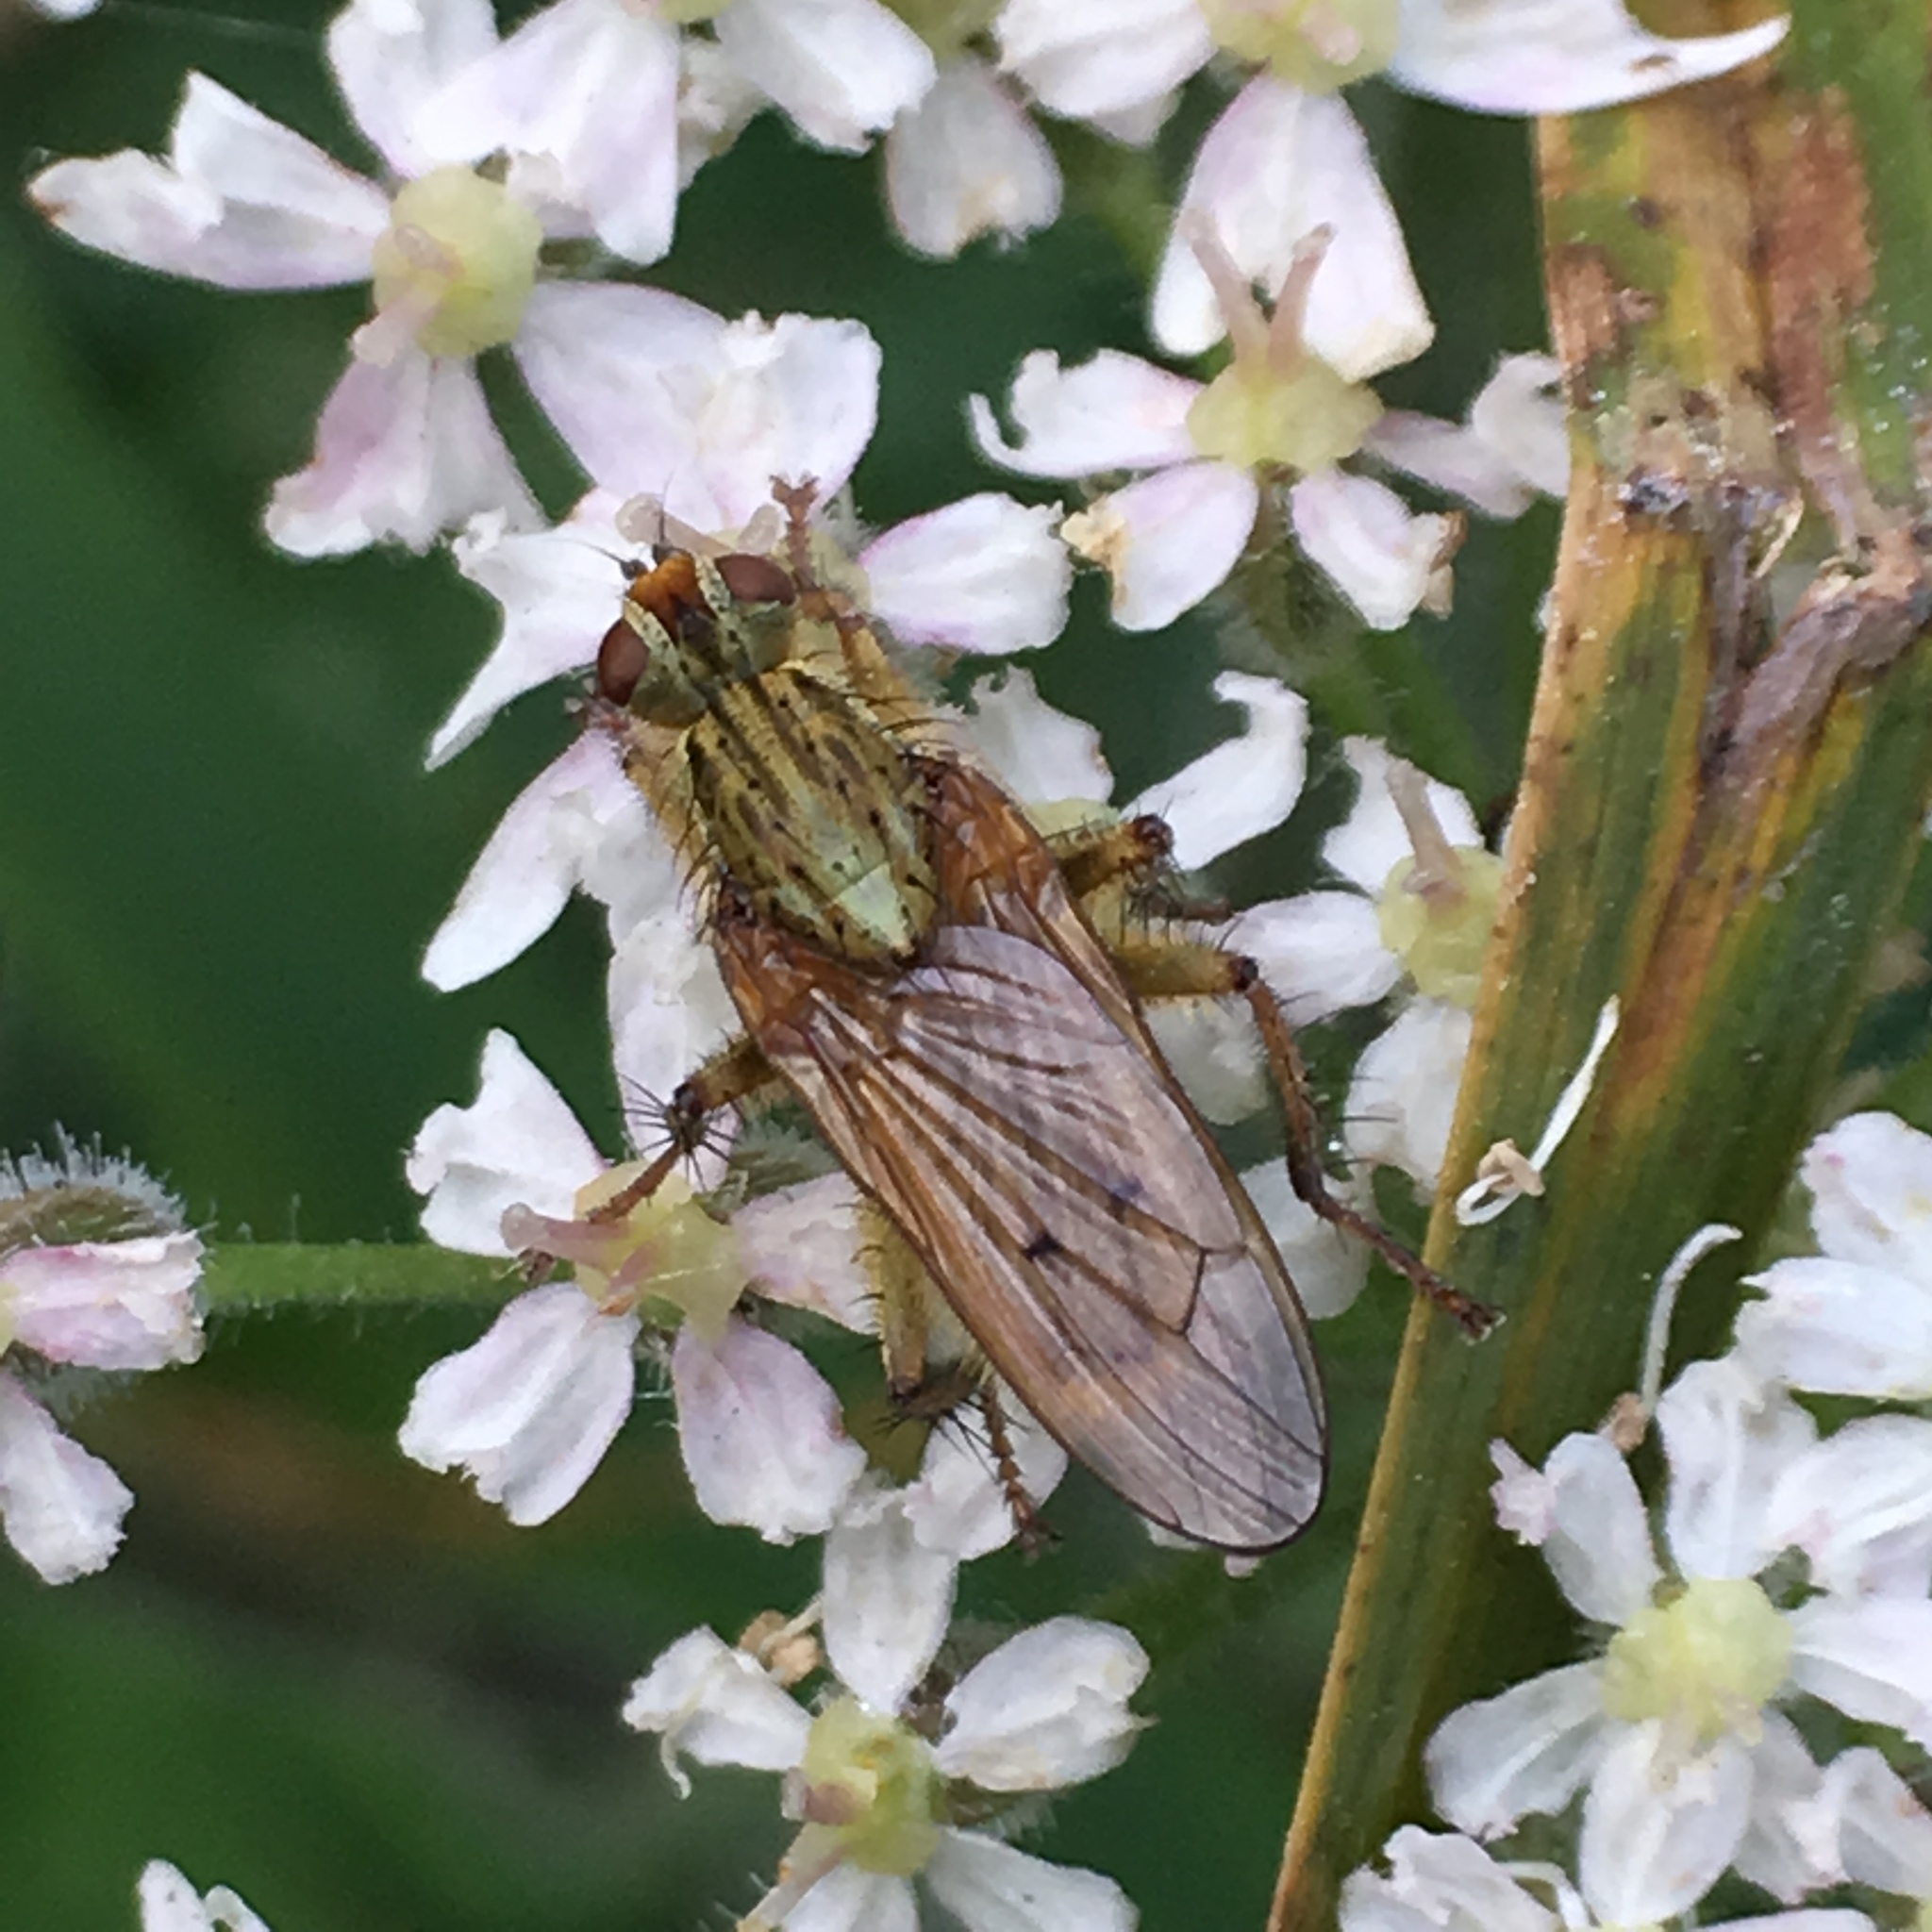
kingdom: Animalia
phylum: Arthropoda
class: Insecta
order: Diptera
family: Scathophagidae
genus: Scathophaga
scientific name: Scathophaga stercoraria
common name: Yellow dung fly
